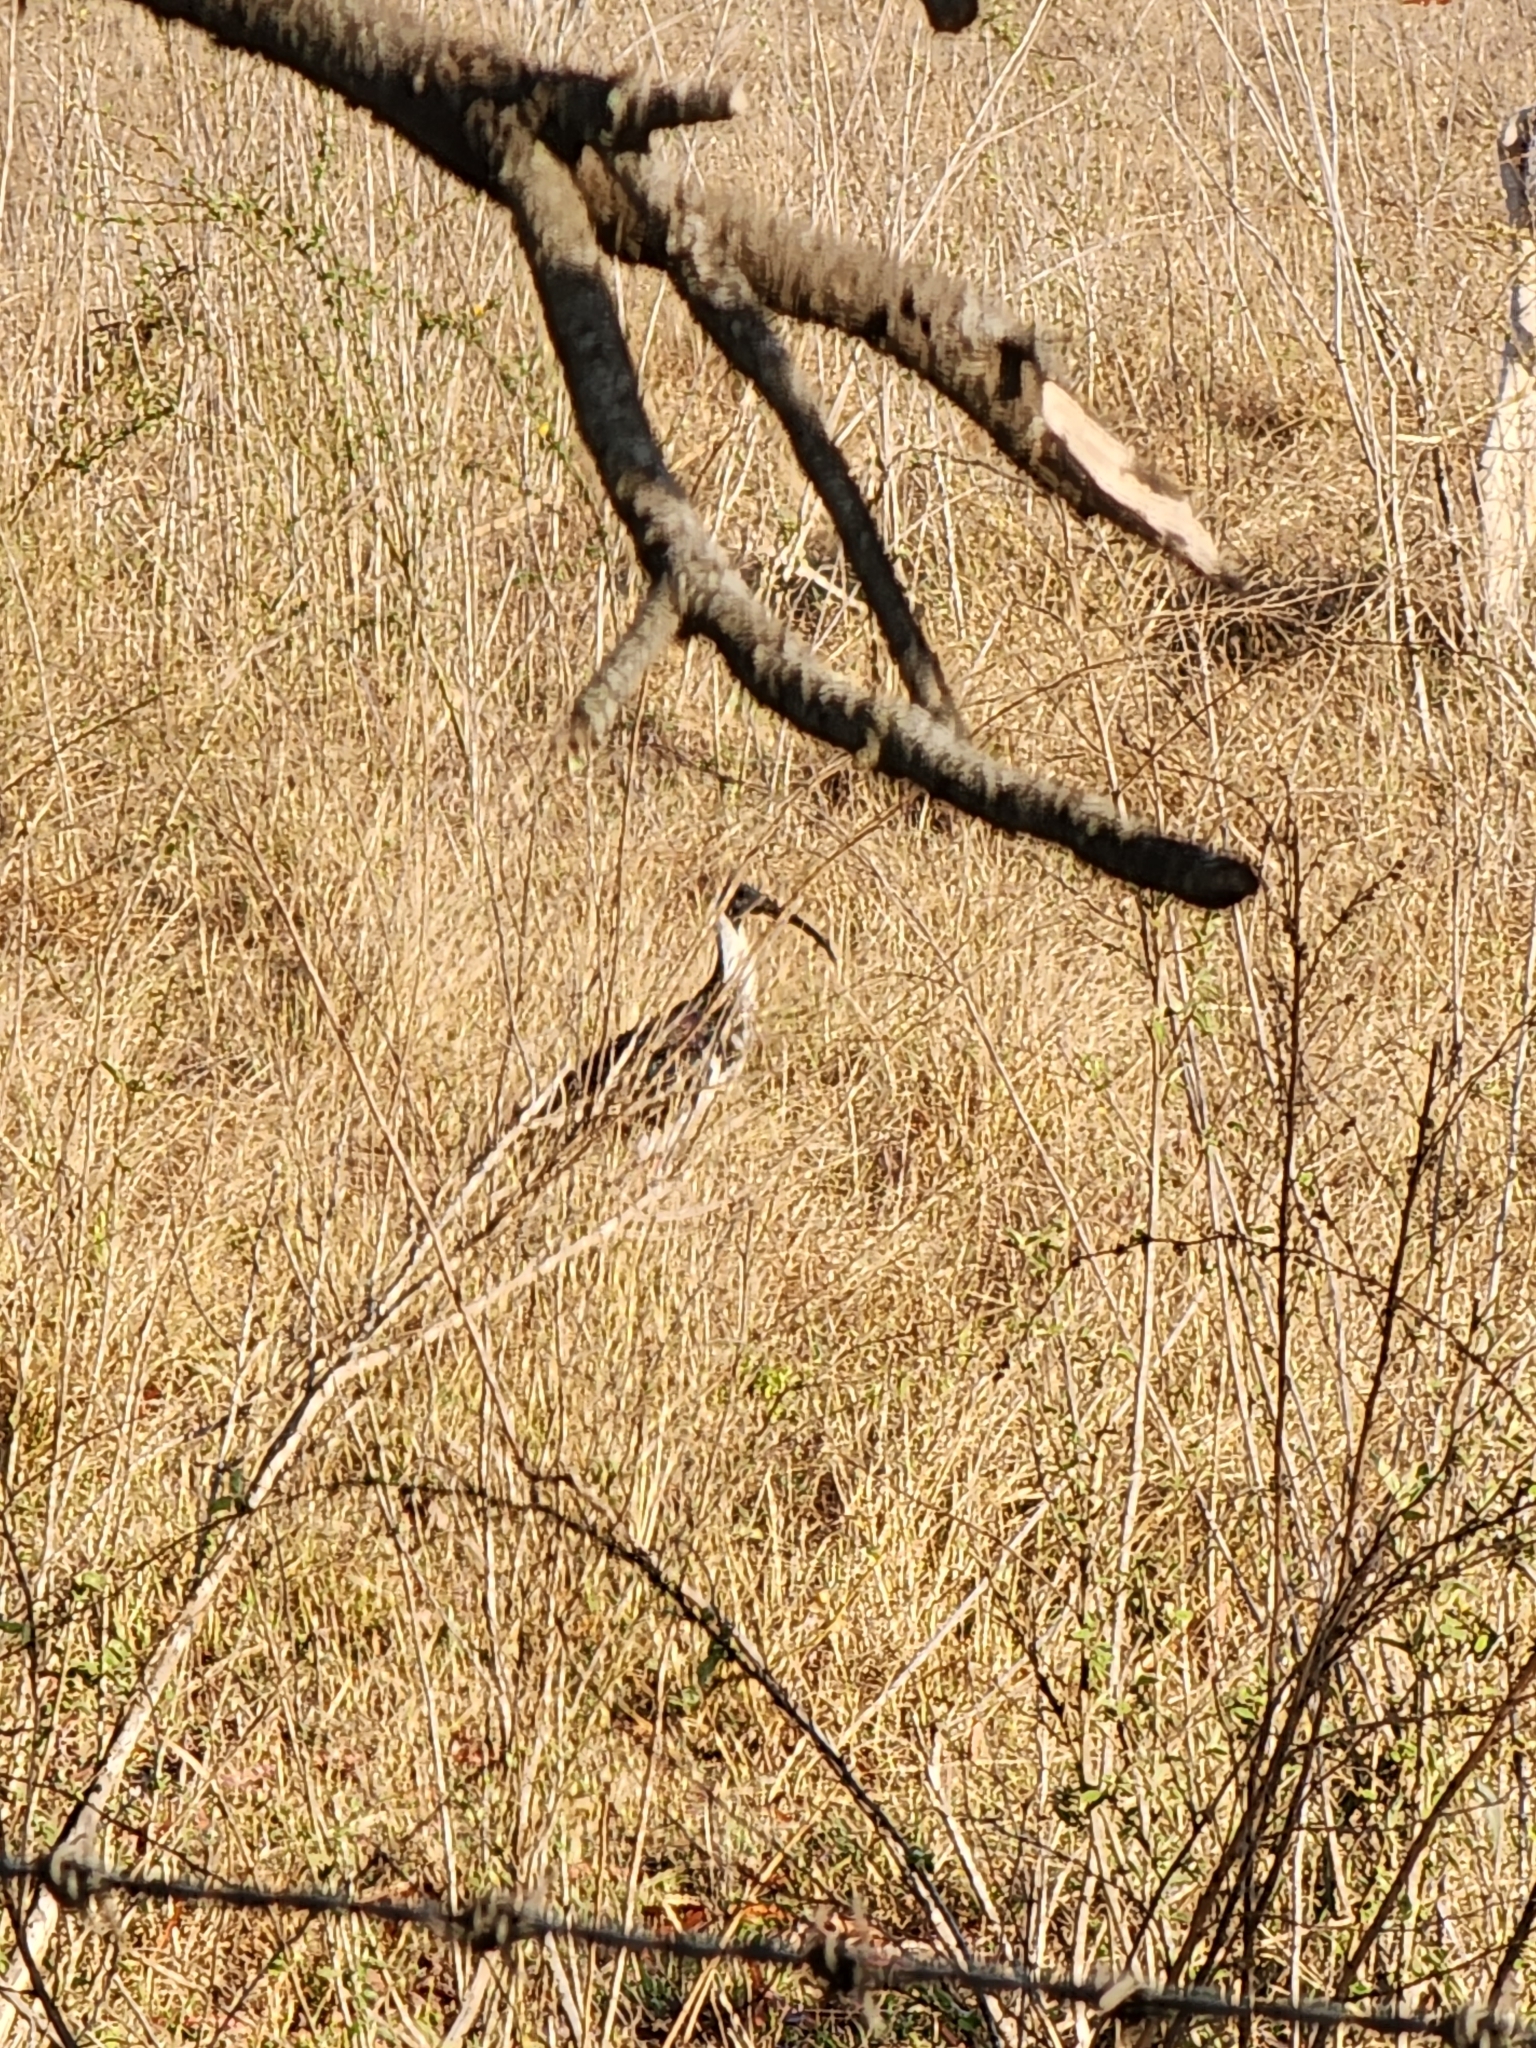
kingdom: Animalia
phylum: Chordata
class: Aves
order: Pelecaniformes
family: Threskiornithidae
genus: Threskiornis
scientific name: Threskiornis spinicollis
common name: Straw-necked ibis
